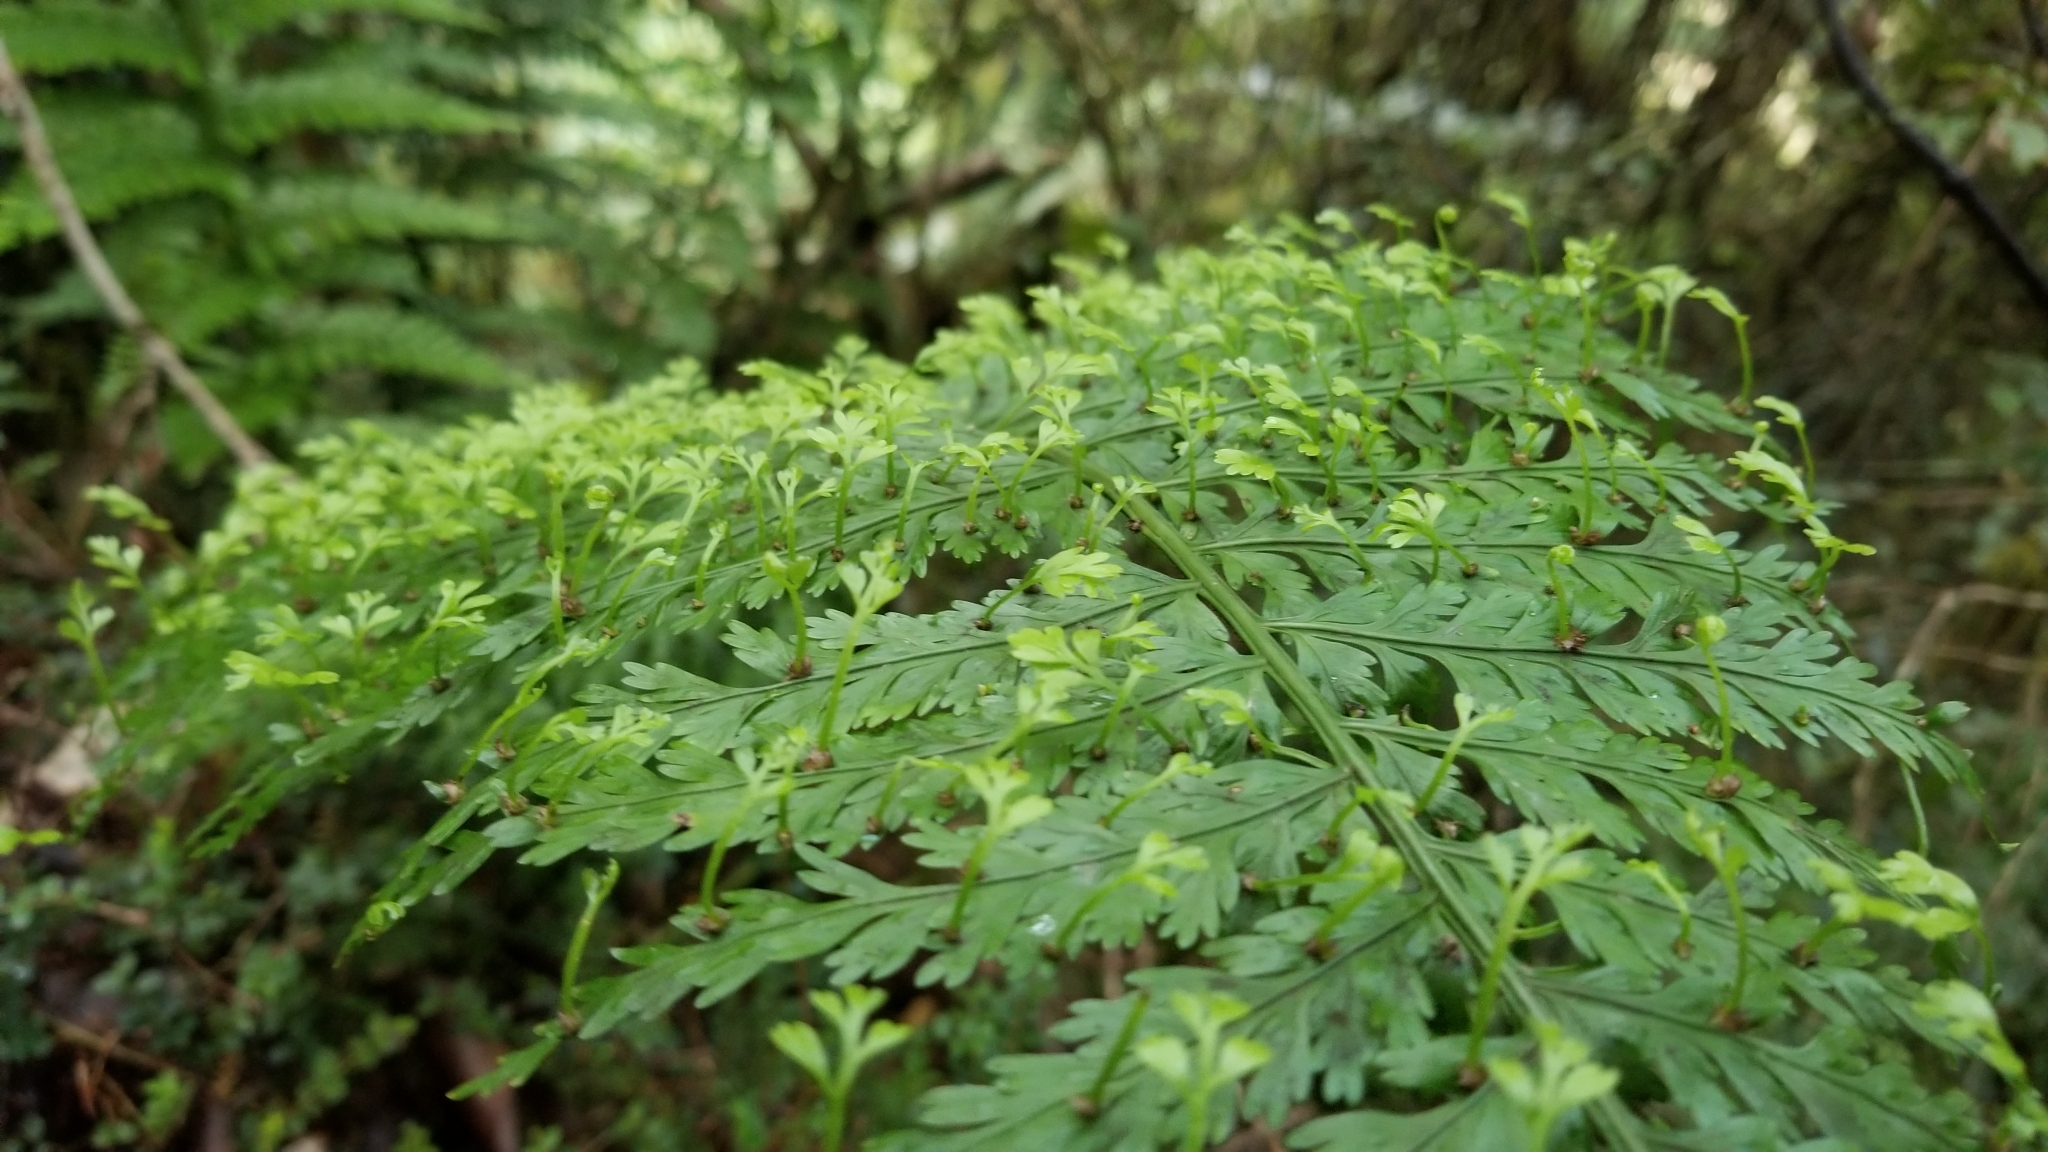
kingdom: Plantae
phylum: Tracheophyta
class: Polypodiopsida
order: Polypodiales
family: Aspleniaceae
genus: Asplenium
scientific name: Asplenium bulbiferum
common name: Mother fern
